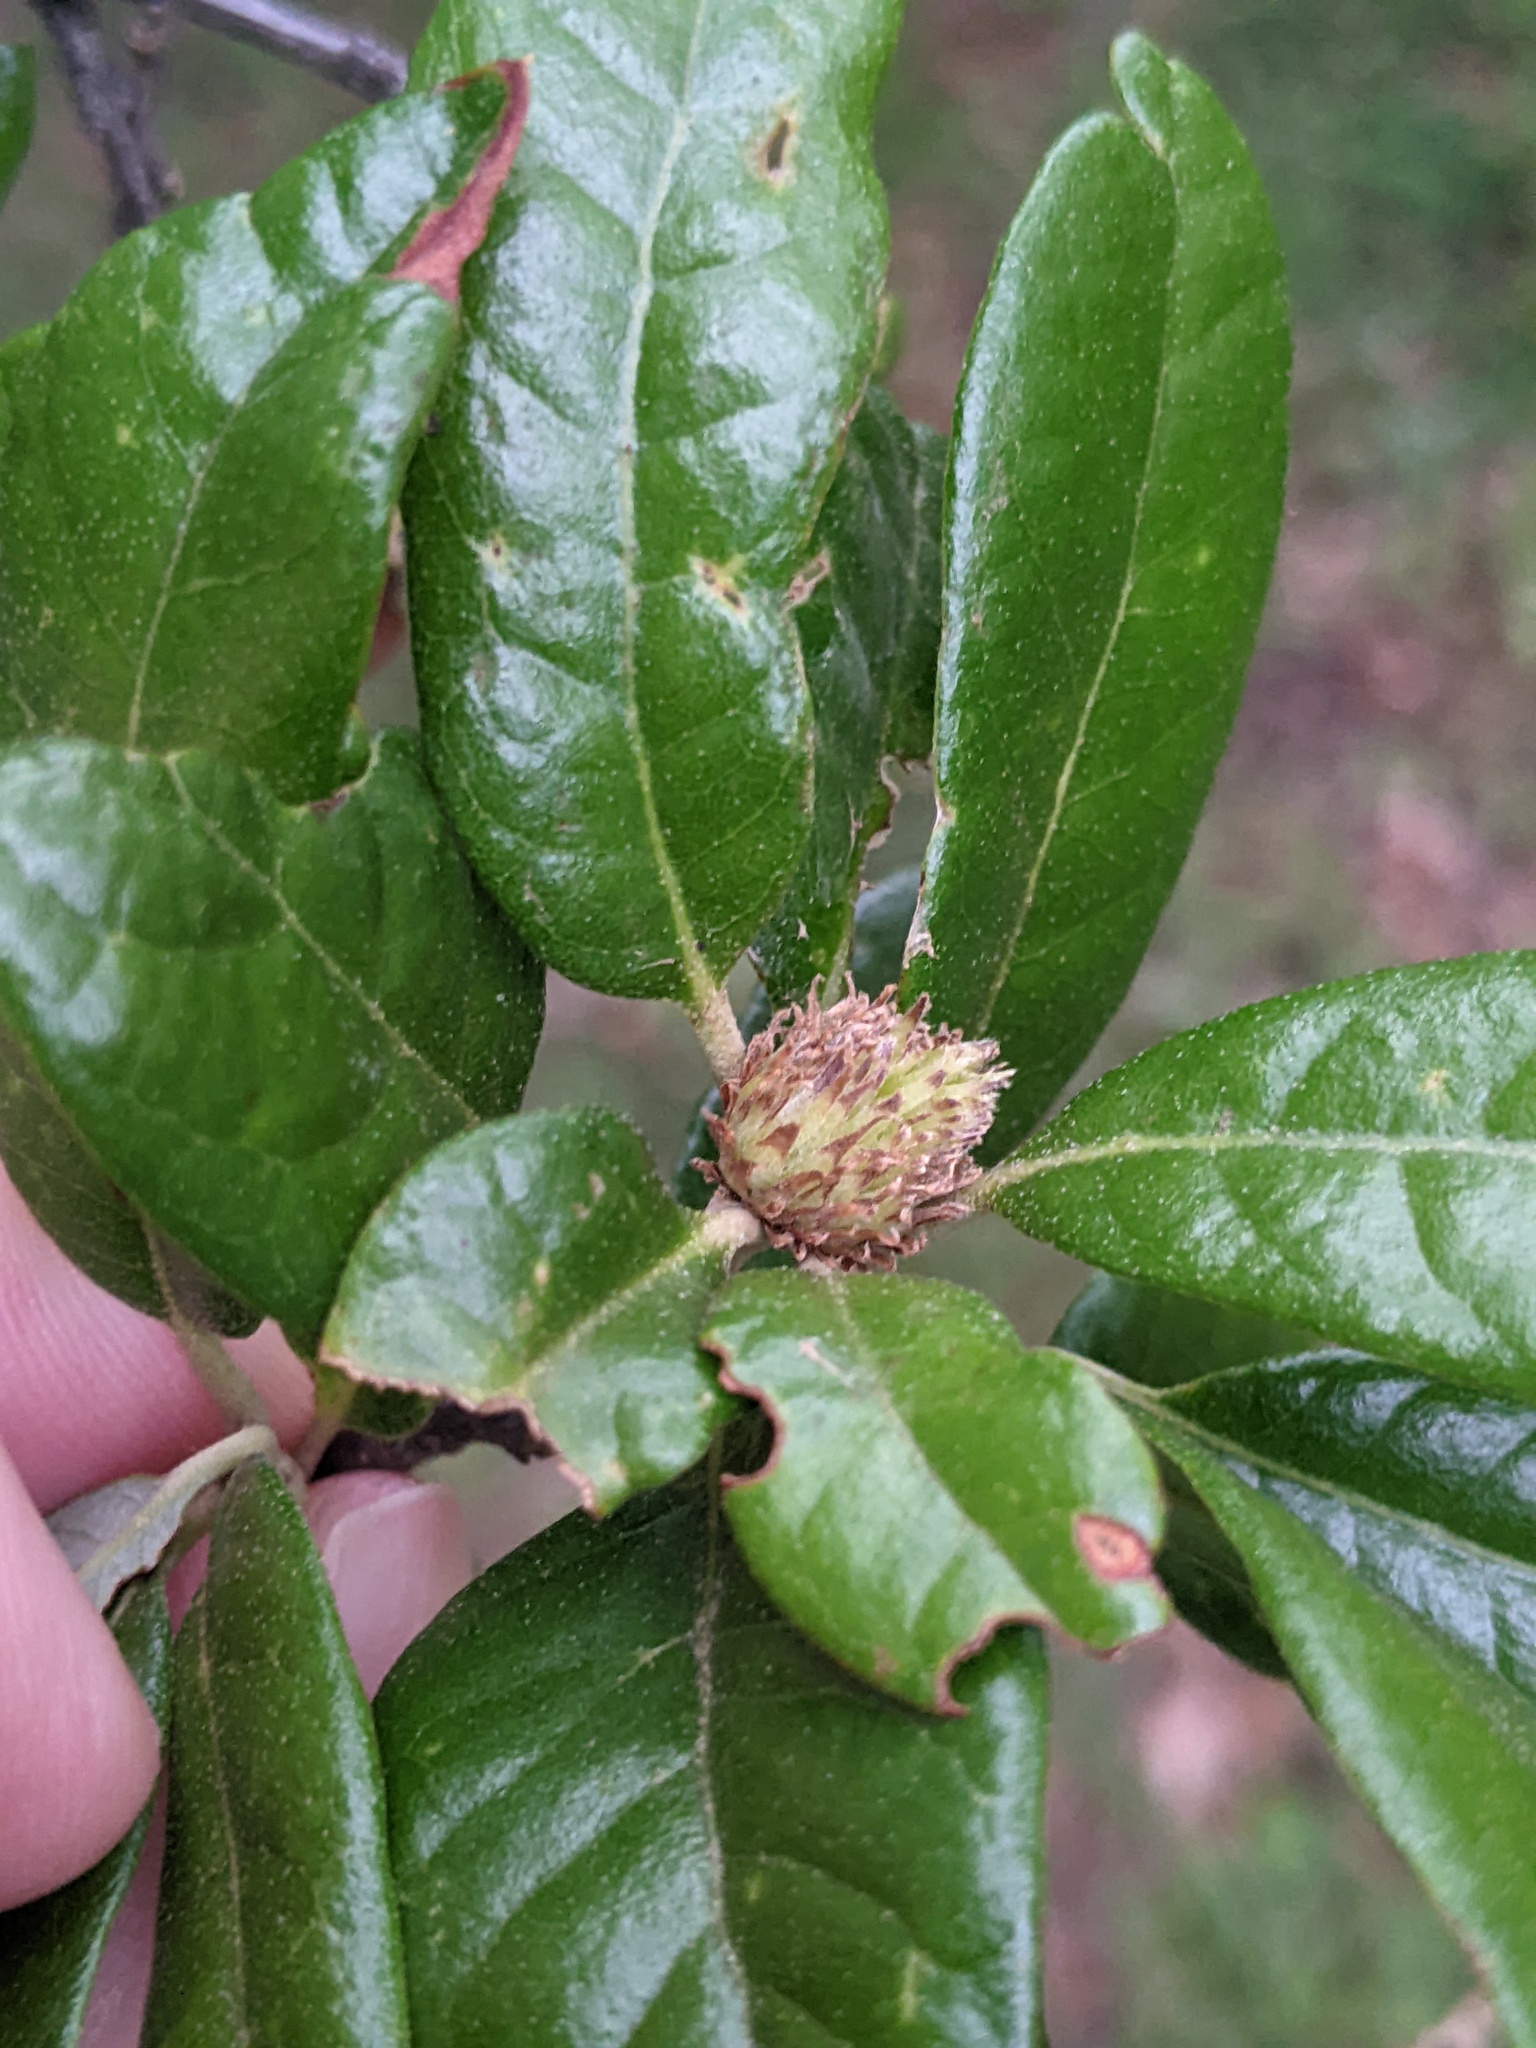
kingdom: Animalia
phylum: Arthropoda
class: Insecta
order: Hymenoptera
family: Cynipidae
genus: Andricus
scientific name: Andricus quercusfoliatus
